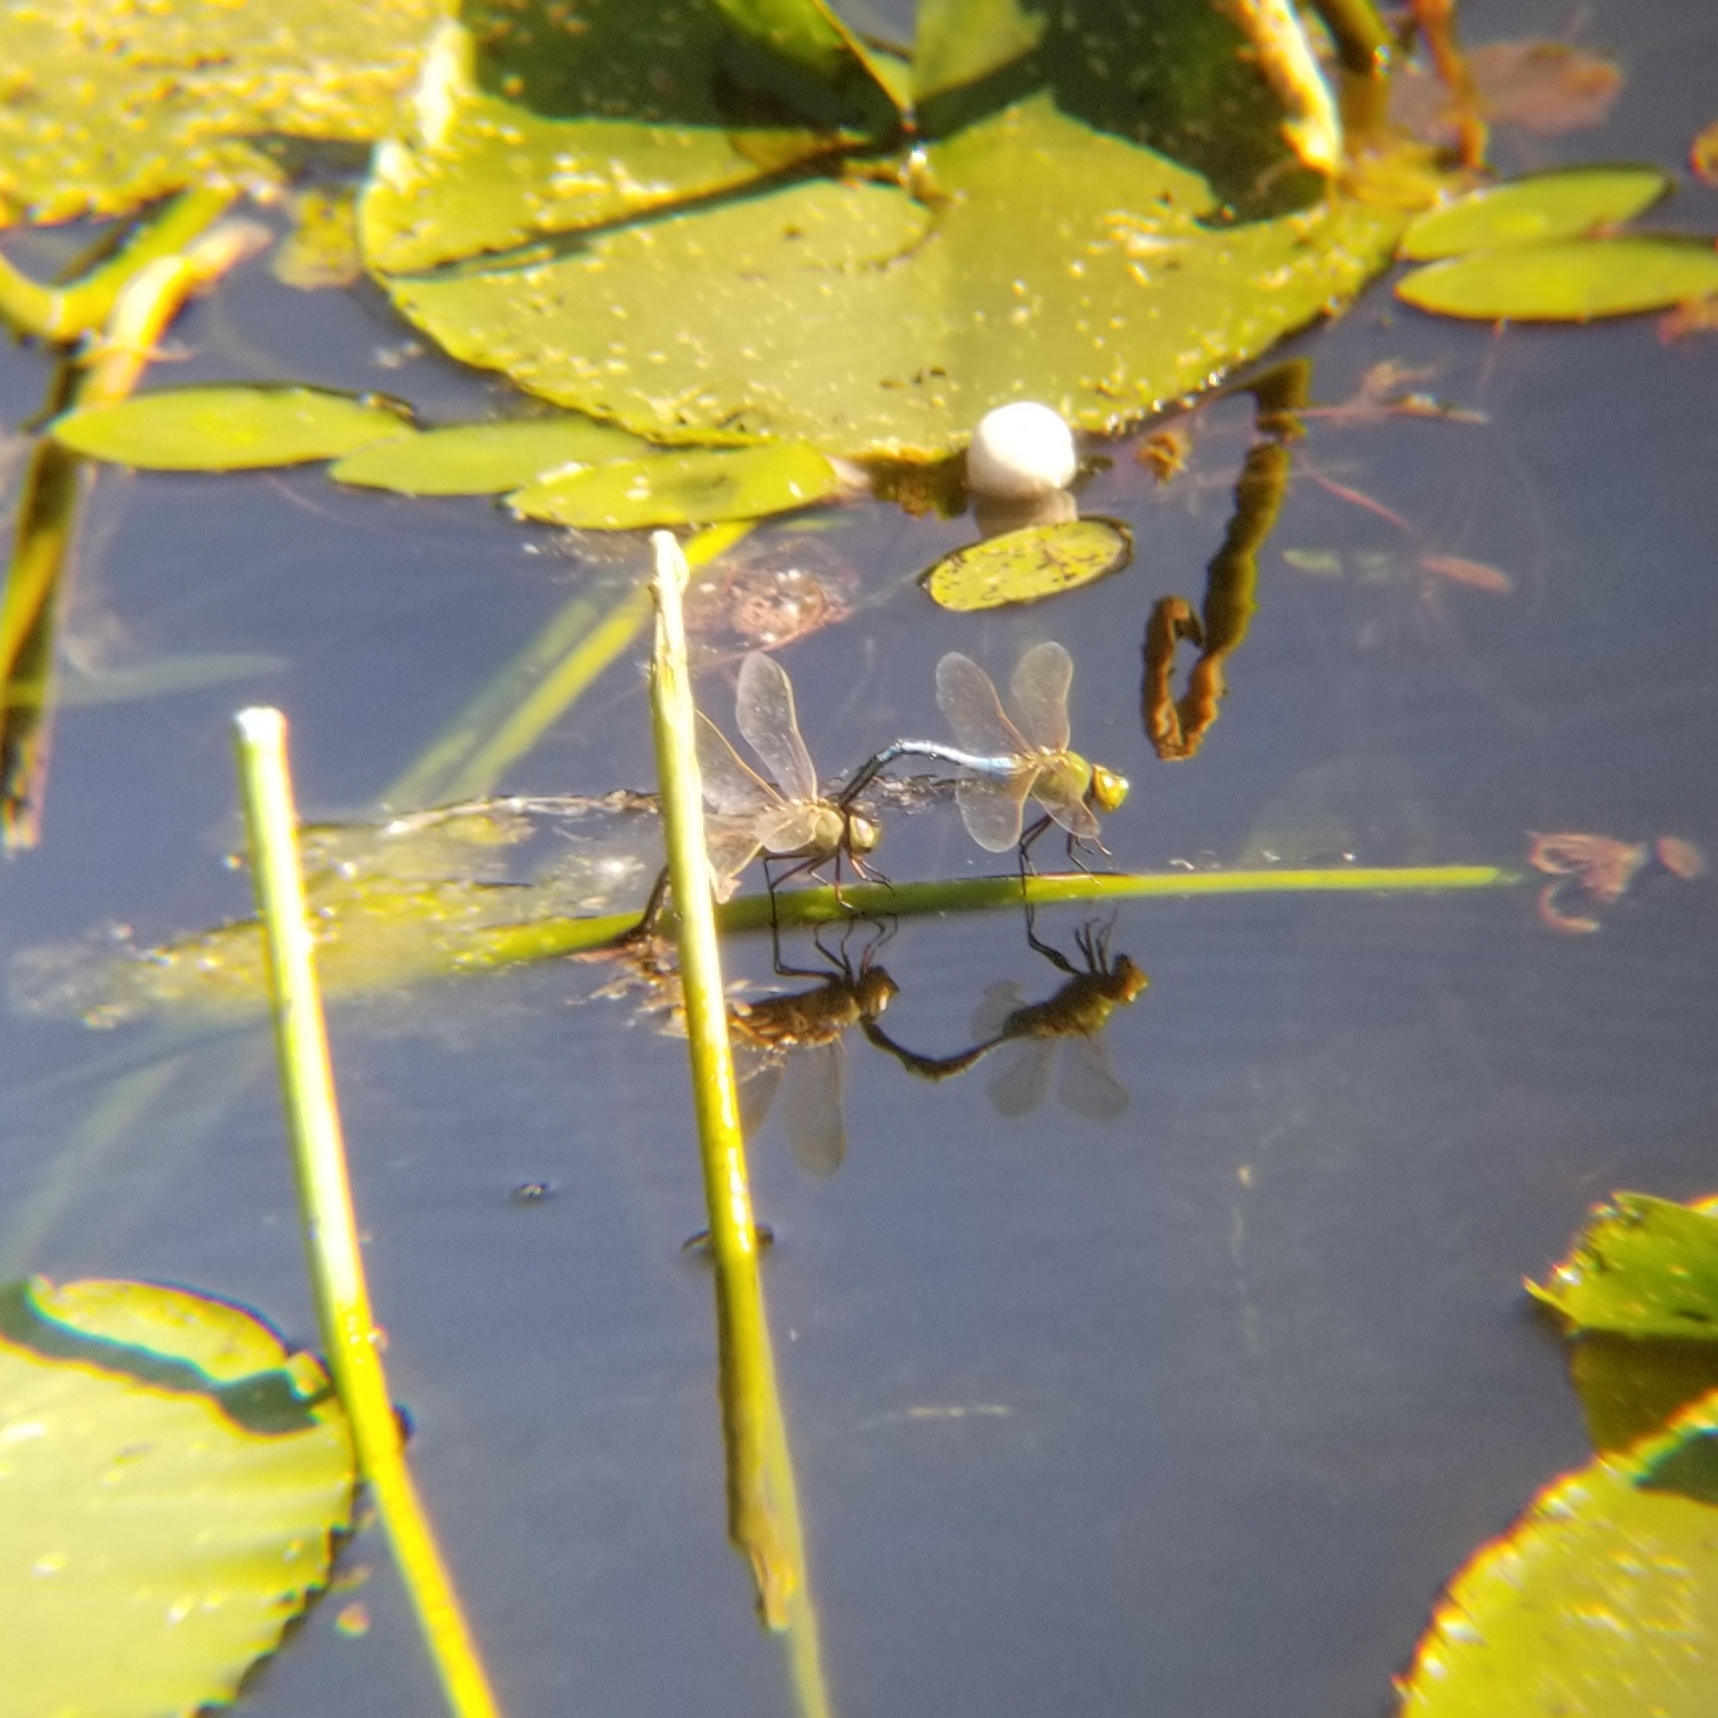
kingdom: Animalia
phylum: Arthropoda
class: Insecta
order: Odonata
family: Aeshnidae
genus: Anax
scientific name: Anax junius
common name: Common green darner
